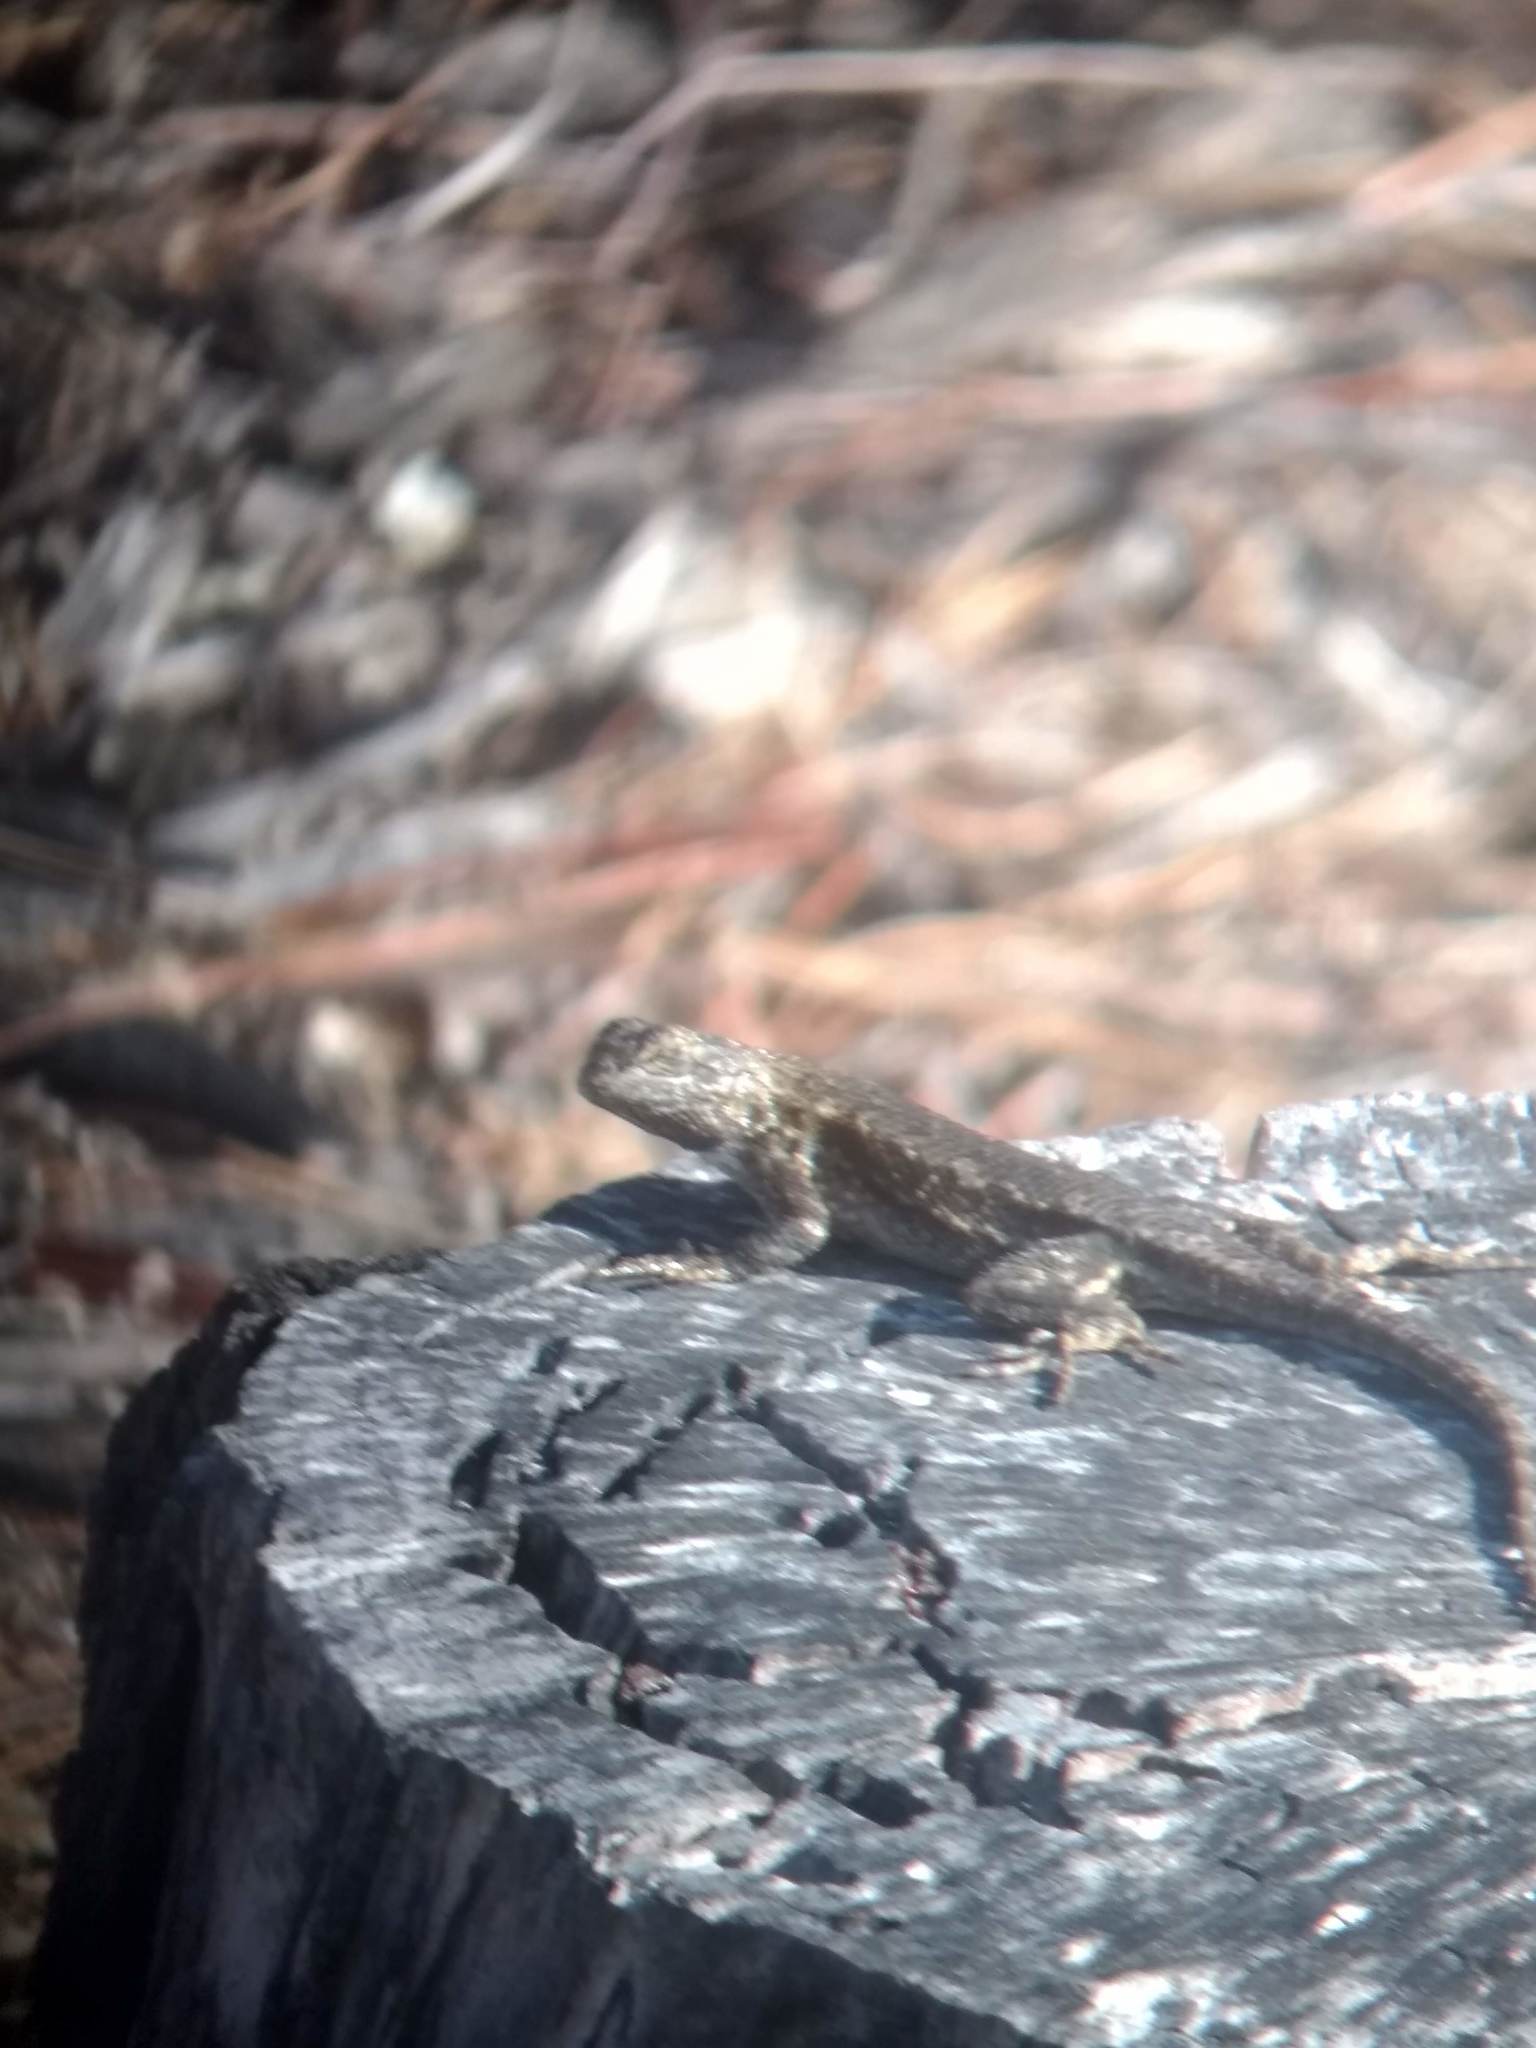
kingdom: Animalia
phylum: Chordata
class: Squamata
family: Phrynosomatidae
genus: Sceloporus
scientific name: Sceloporus occidentalis
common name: Western fence lizard
